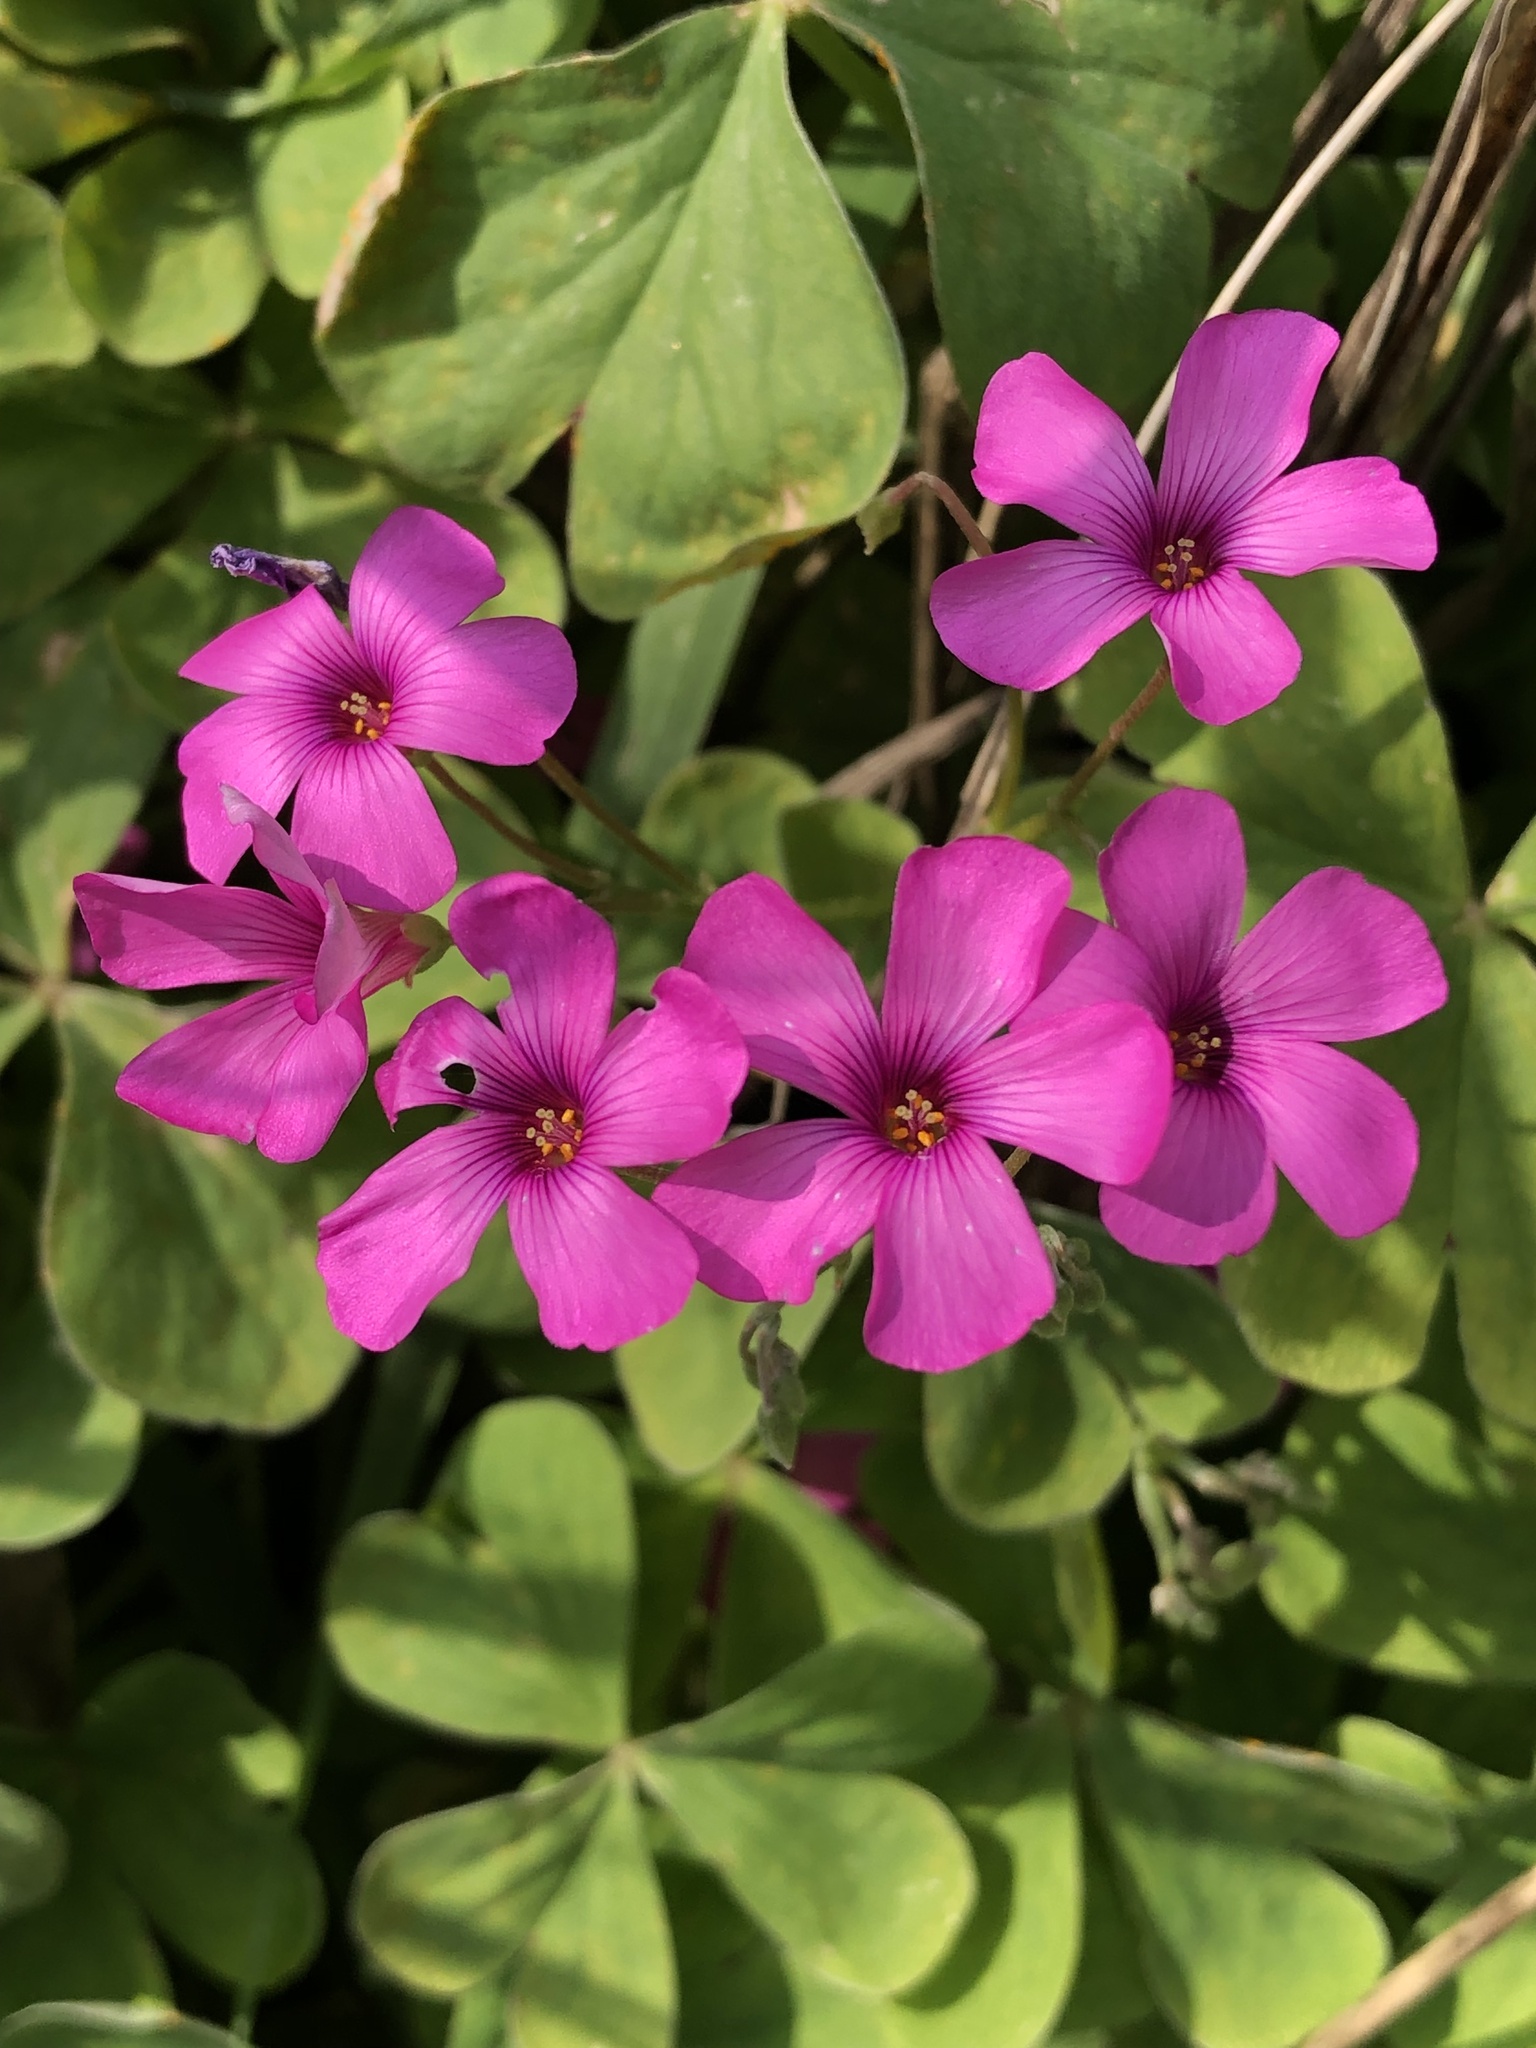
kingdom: Plantae
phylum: Tracheophyta
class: Magnoliopsida
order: Oxalidales
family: Oxalidaceae
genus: Oxalis
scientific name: Oxalis articulata
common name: Pink-sorrel
